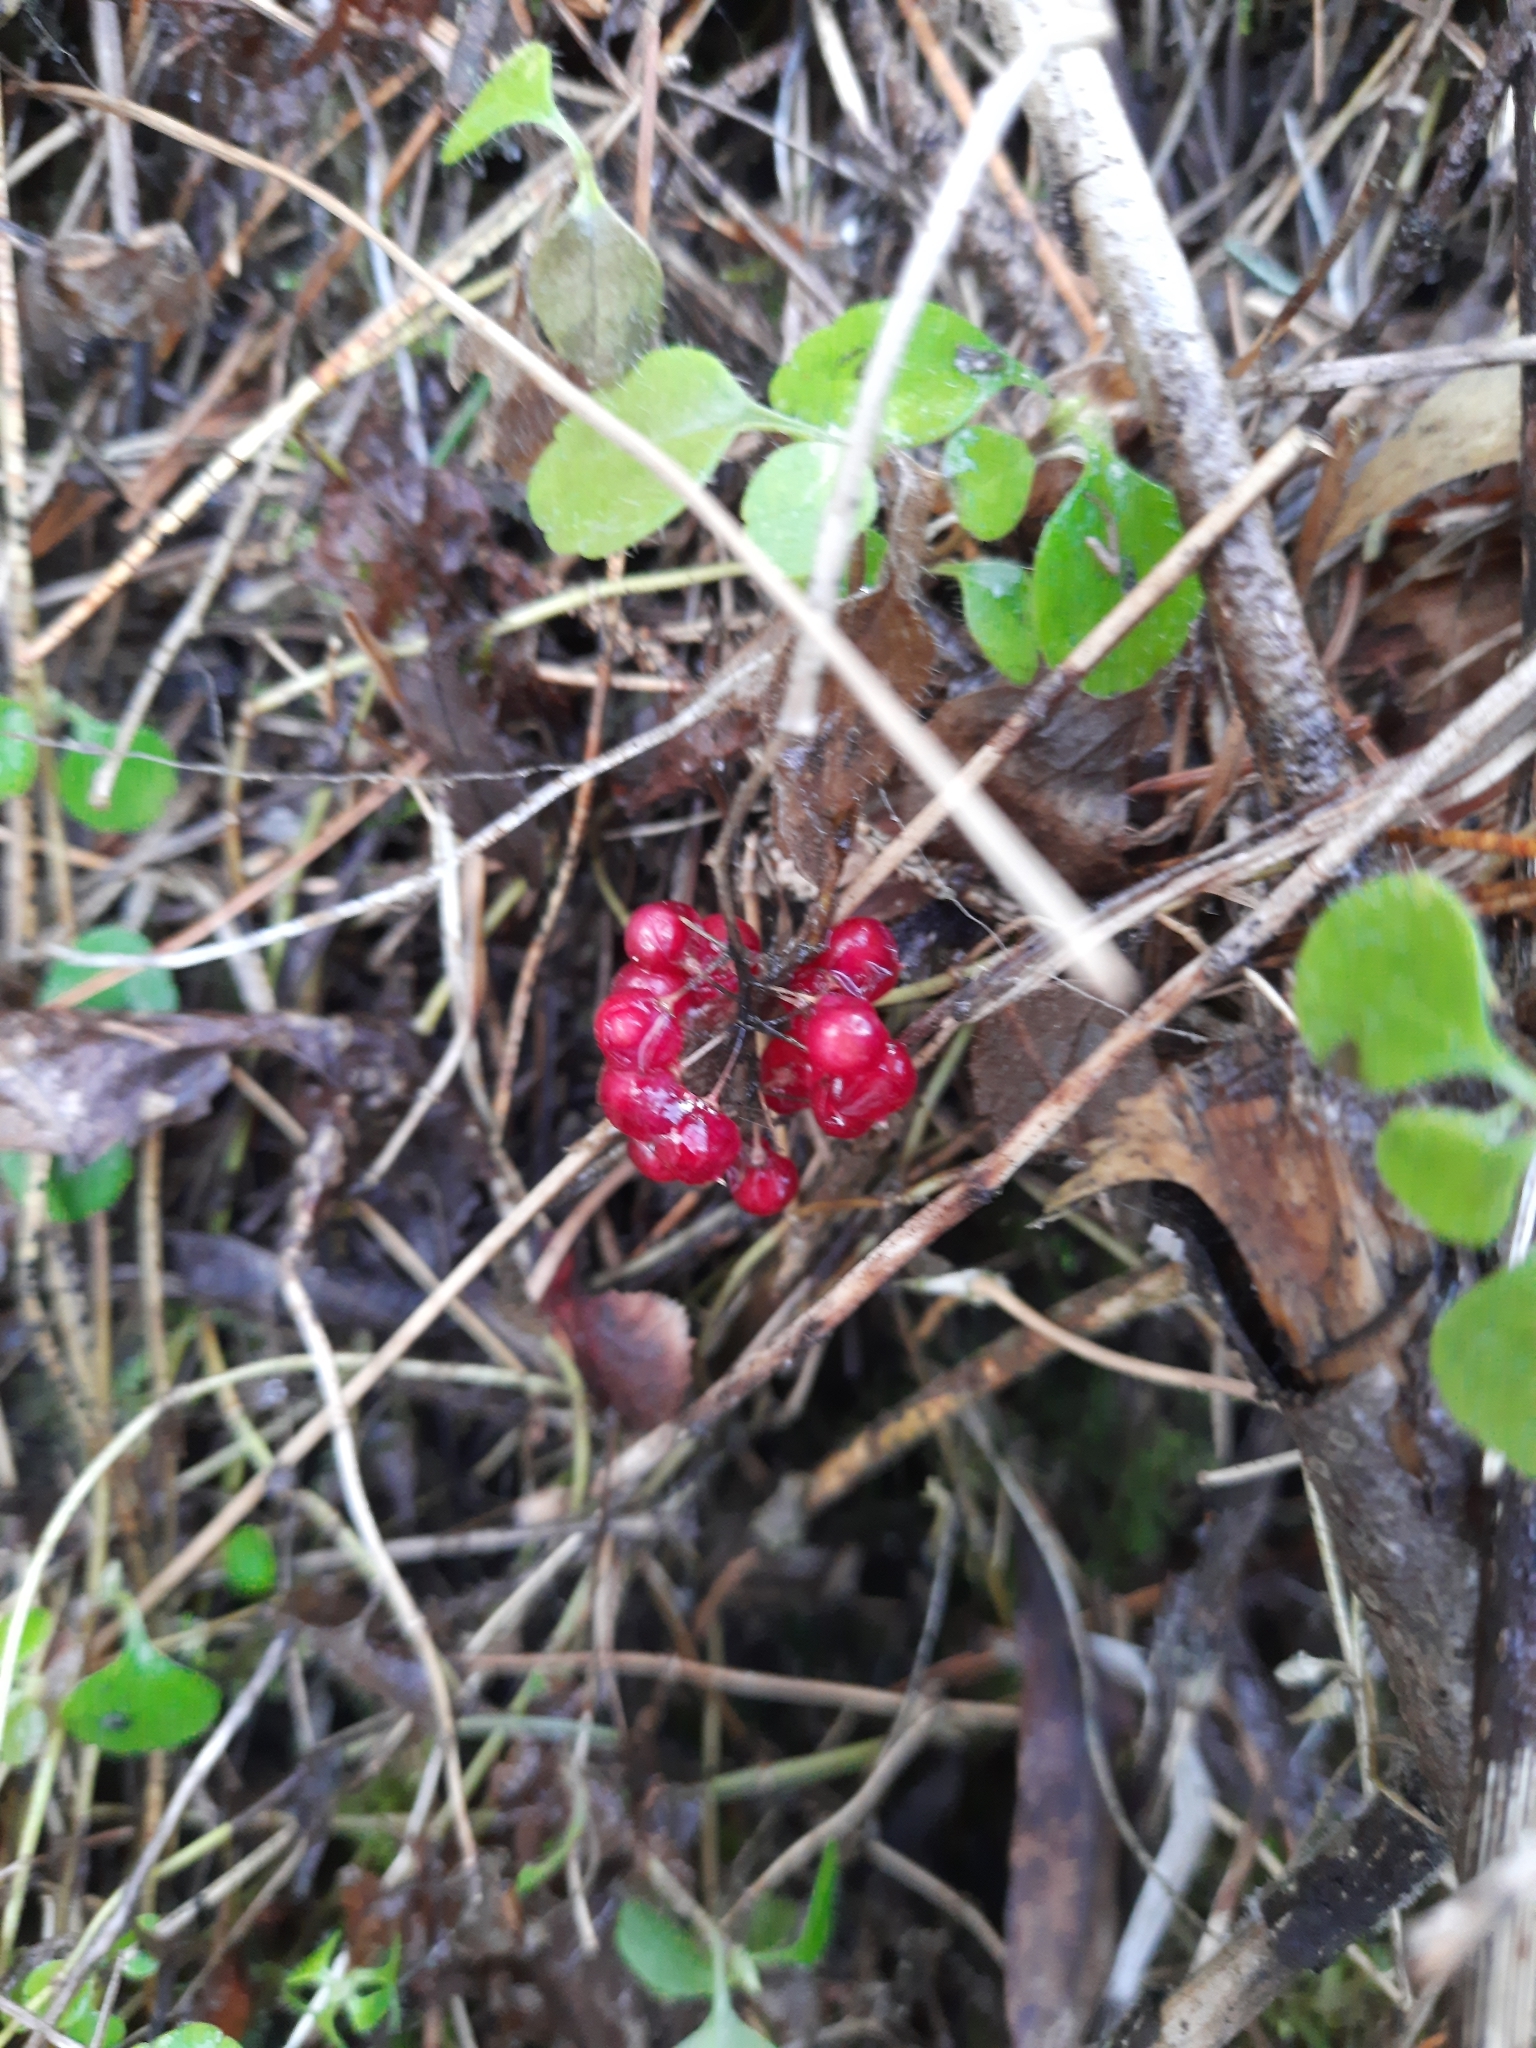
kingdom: Plantae
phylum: Tracheophyta
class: Liliopsida
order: Asparagales
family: Asparagaceae
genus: Maianthemum
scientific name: Maianthemum bifolium
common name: May lily
